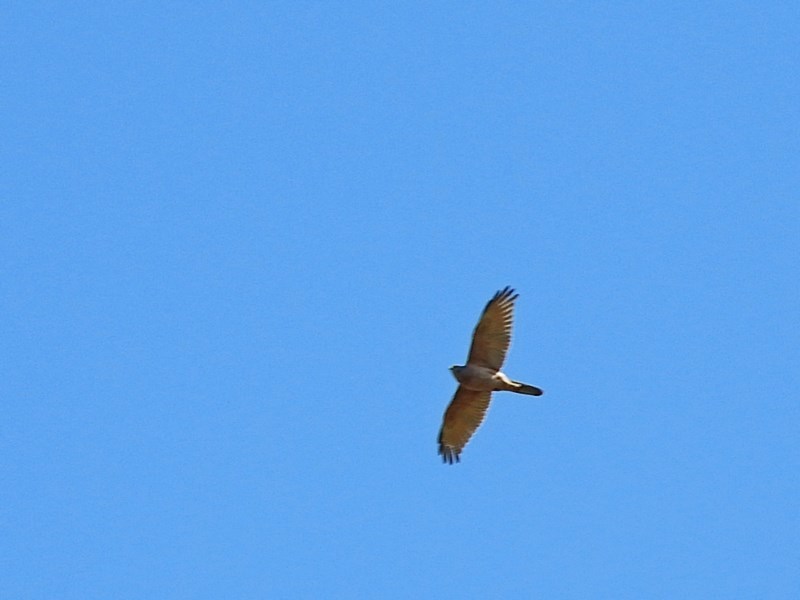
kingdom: Animalia
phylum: Chordata
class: Aves
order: Accipitriformes
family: Accipitridae
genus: Accipiter
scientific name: Accipiter fasciatus
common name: Brown goshawk
